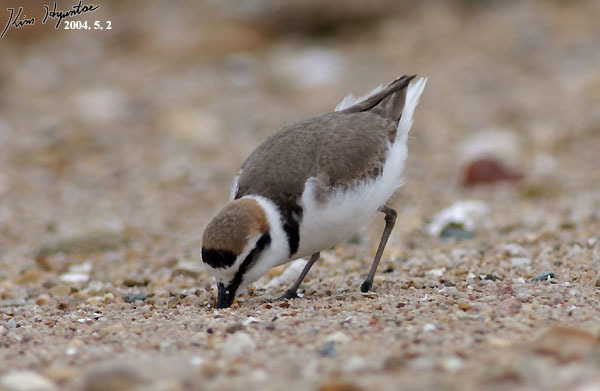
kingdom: Animalia
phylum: Chordata
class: Aves
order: Charadriiformes
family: Charadriidae
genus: Charadrius
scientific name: Charadrius alexandrinus
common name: Kentish plover
